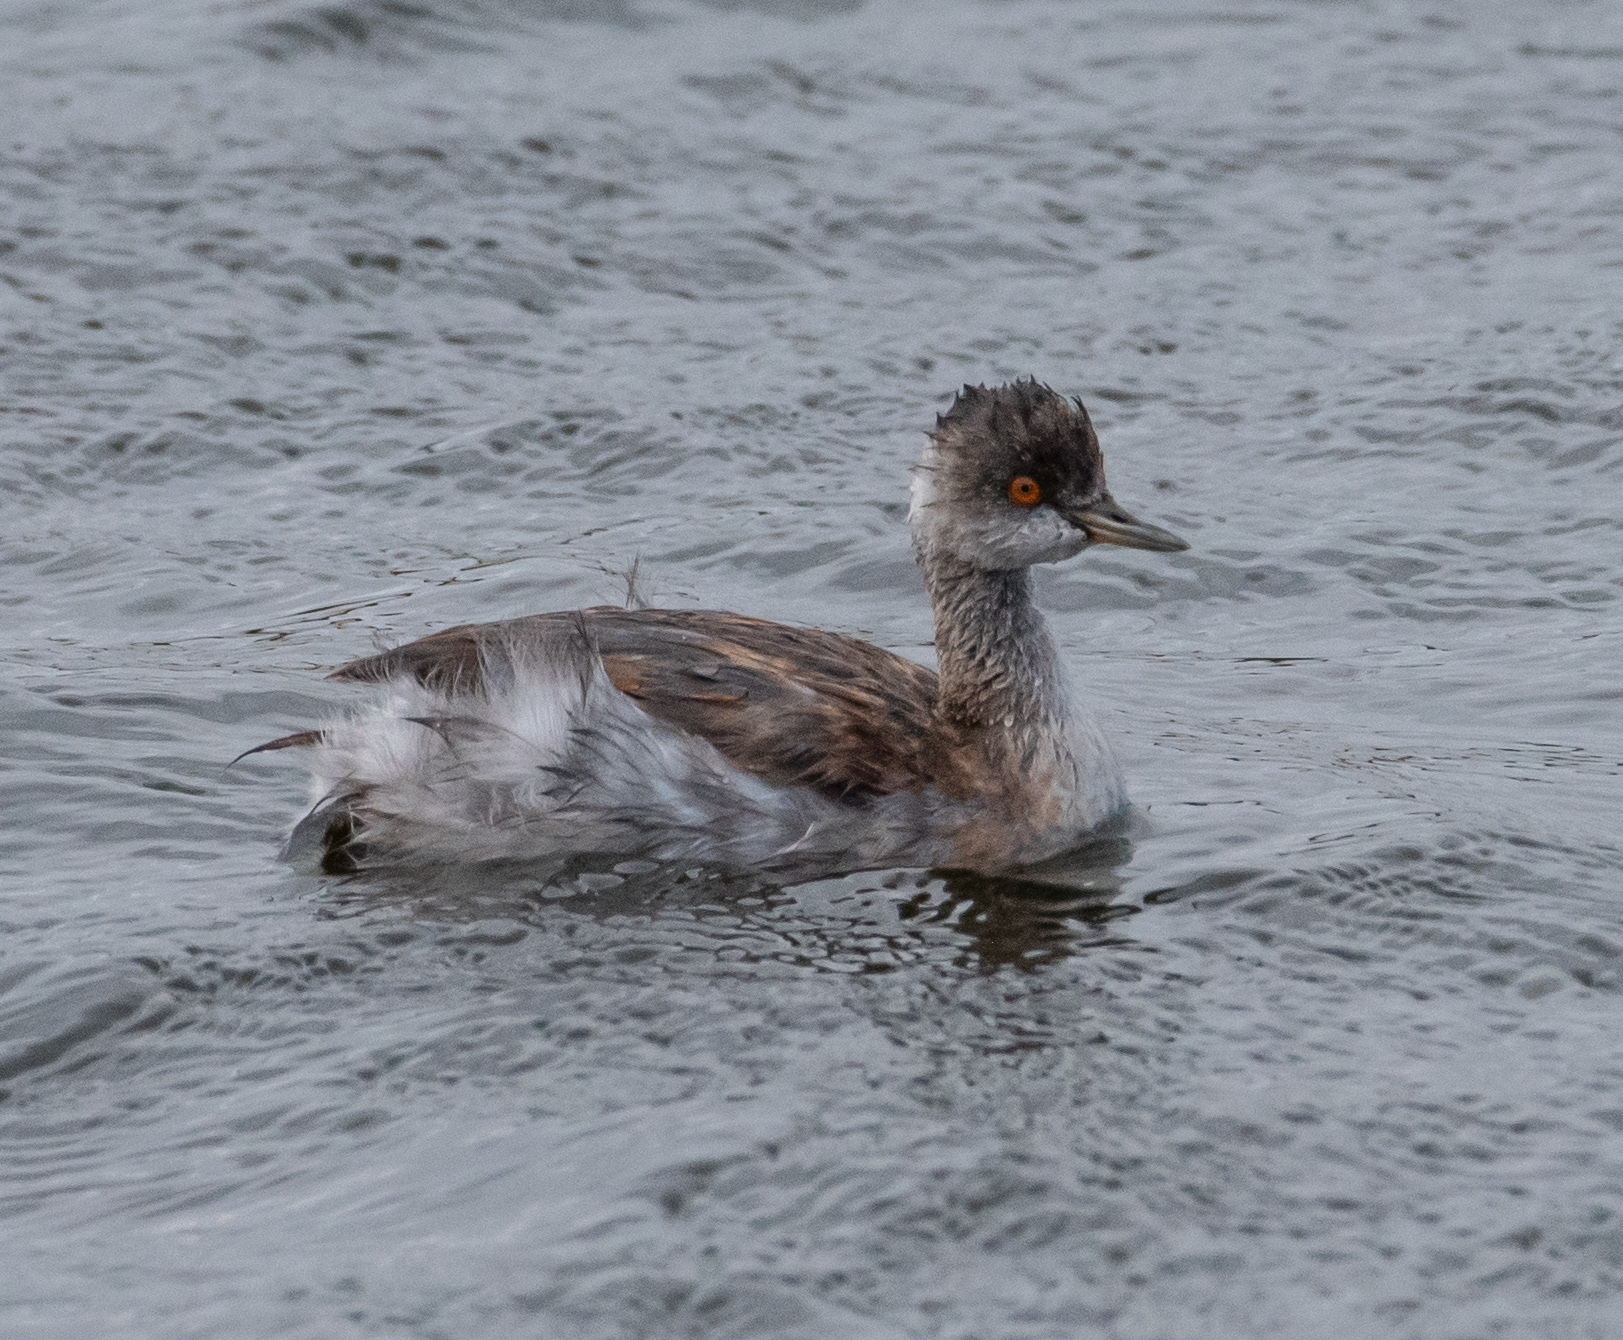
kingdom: Animalia
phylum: Chordata
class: Aves
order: Podicipediformes
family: Podicipedidae
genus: Podiceps
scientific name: Podiceps nigricollis
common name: Black-necked grebe
